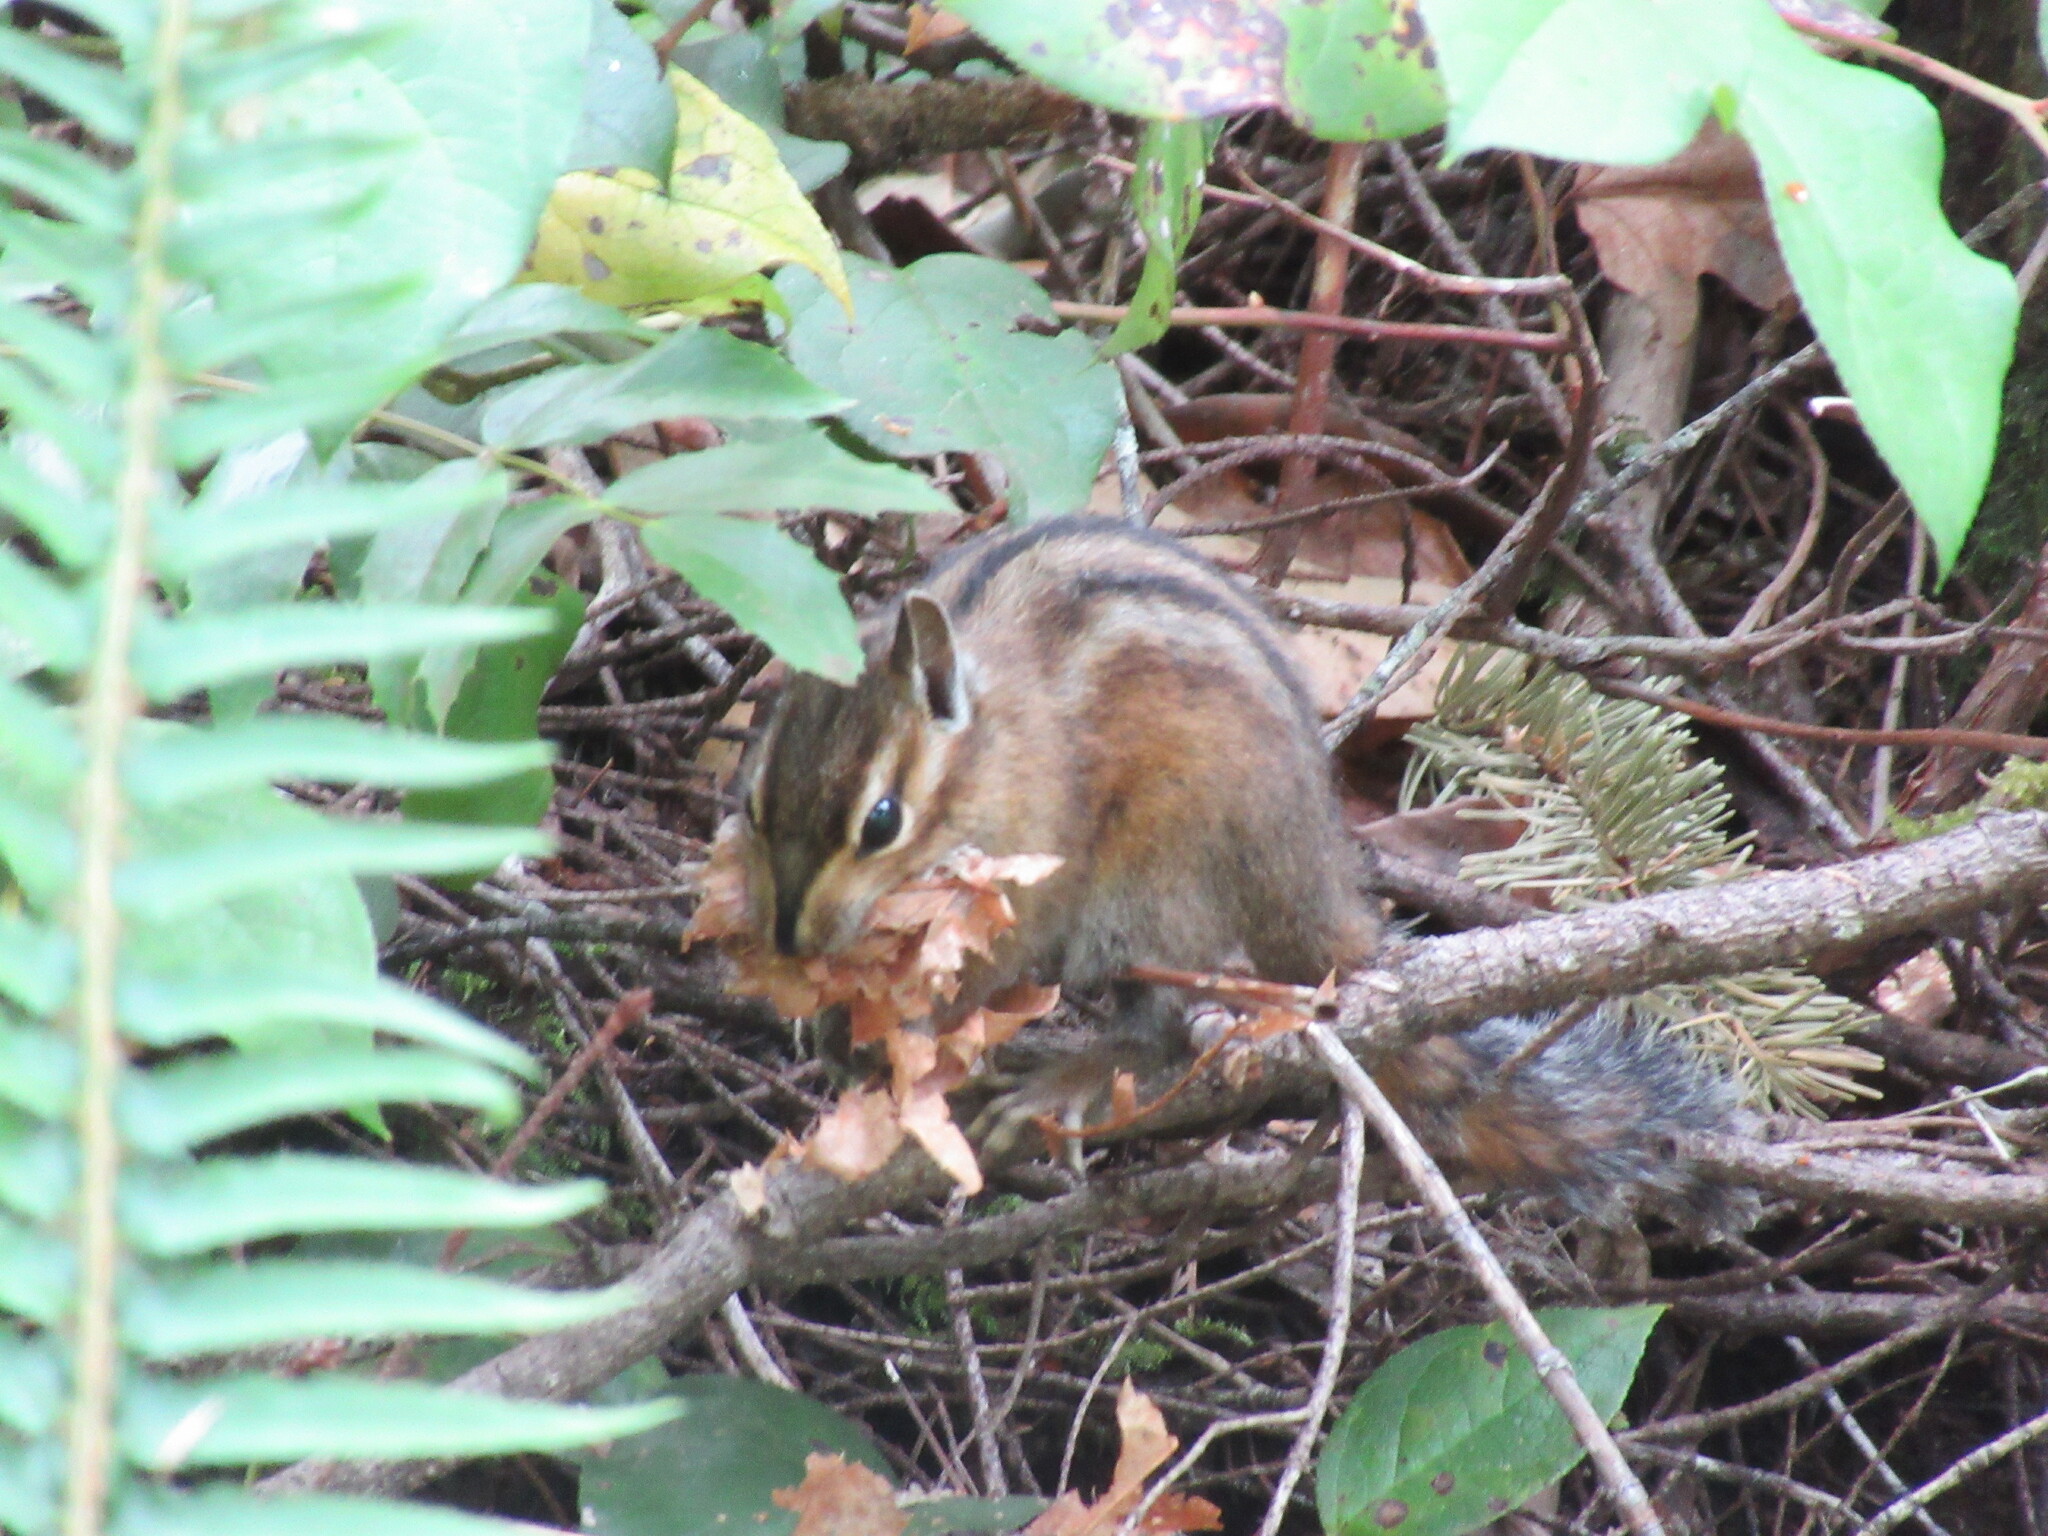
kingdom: Animalia
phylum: Chordata
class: Mammalia
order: Rodentia
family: Sciuridae
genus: Tamias
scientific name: Tamias townsendii
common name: Townsend's chipmunk
